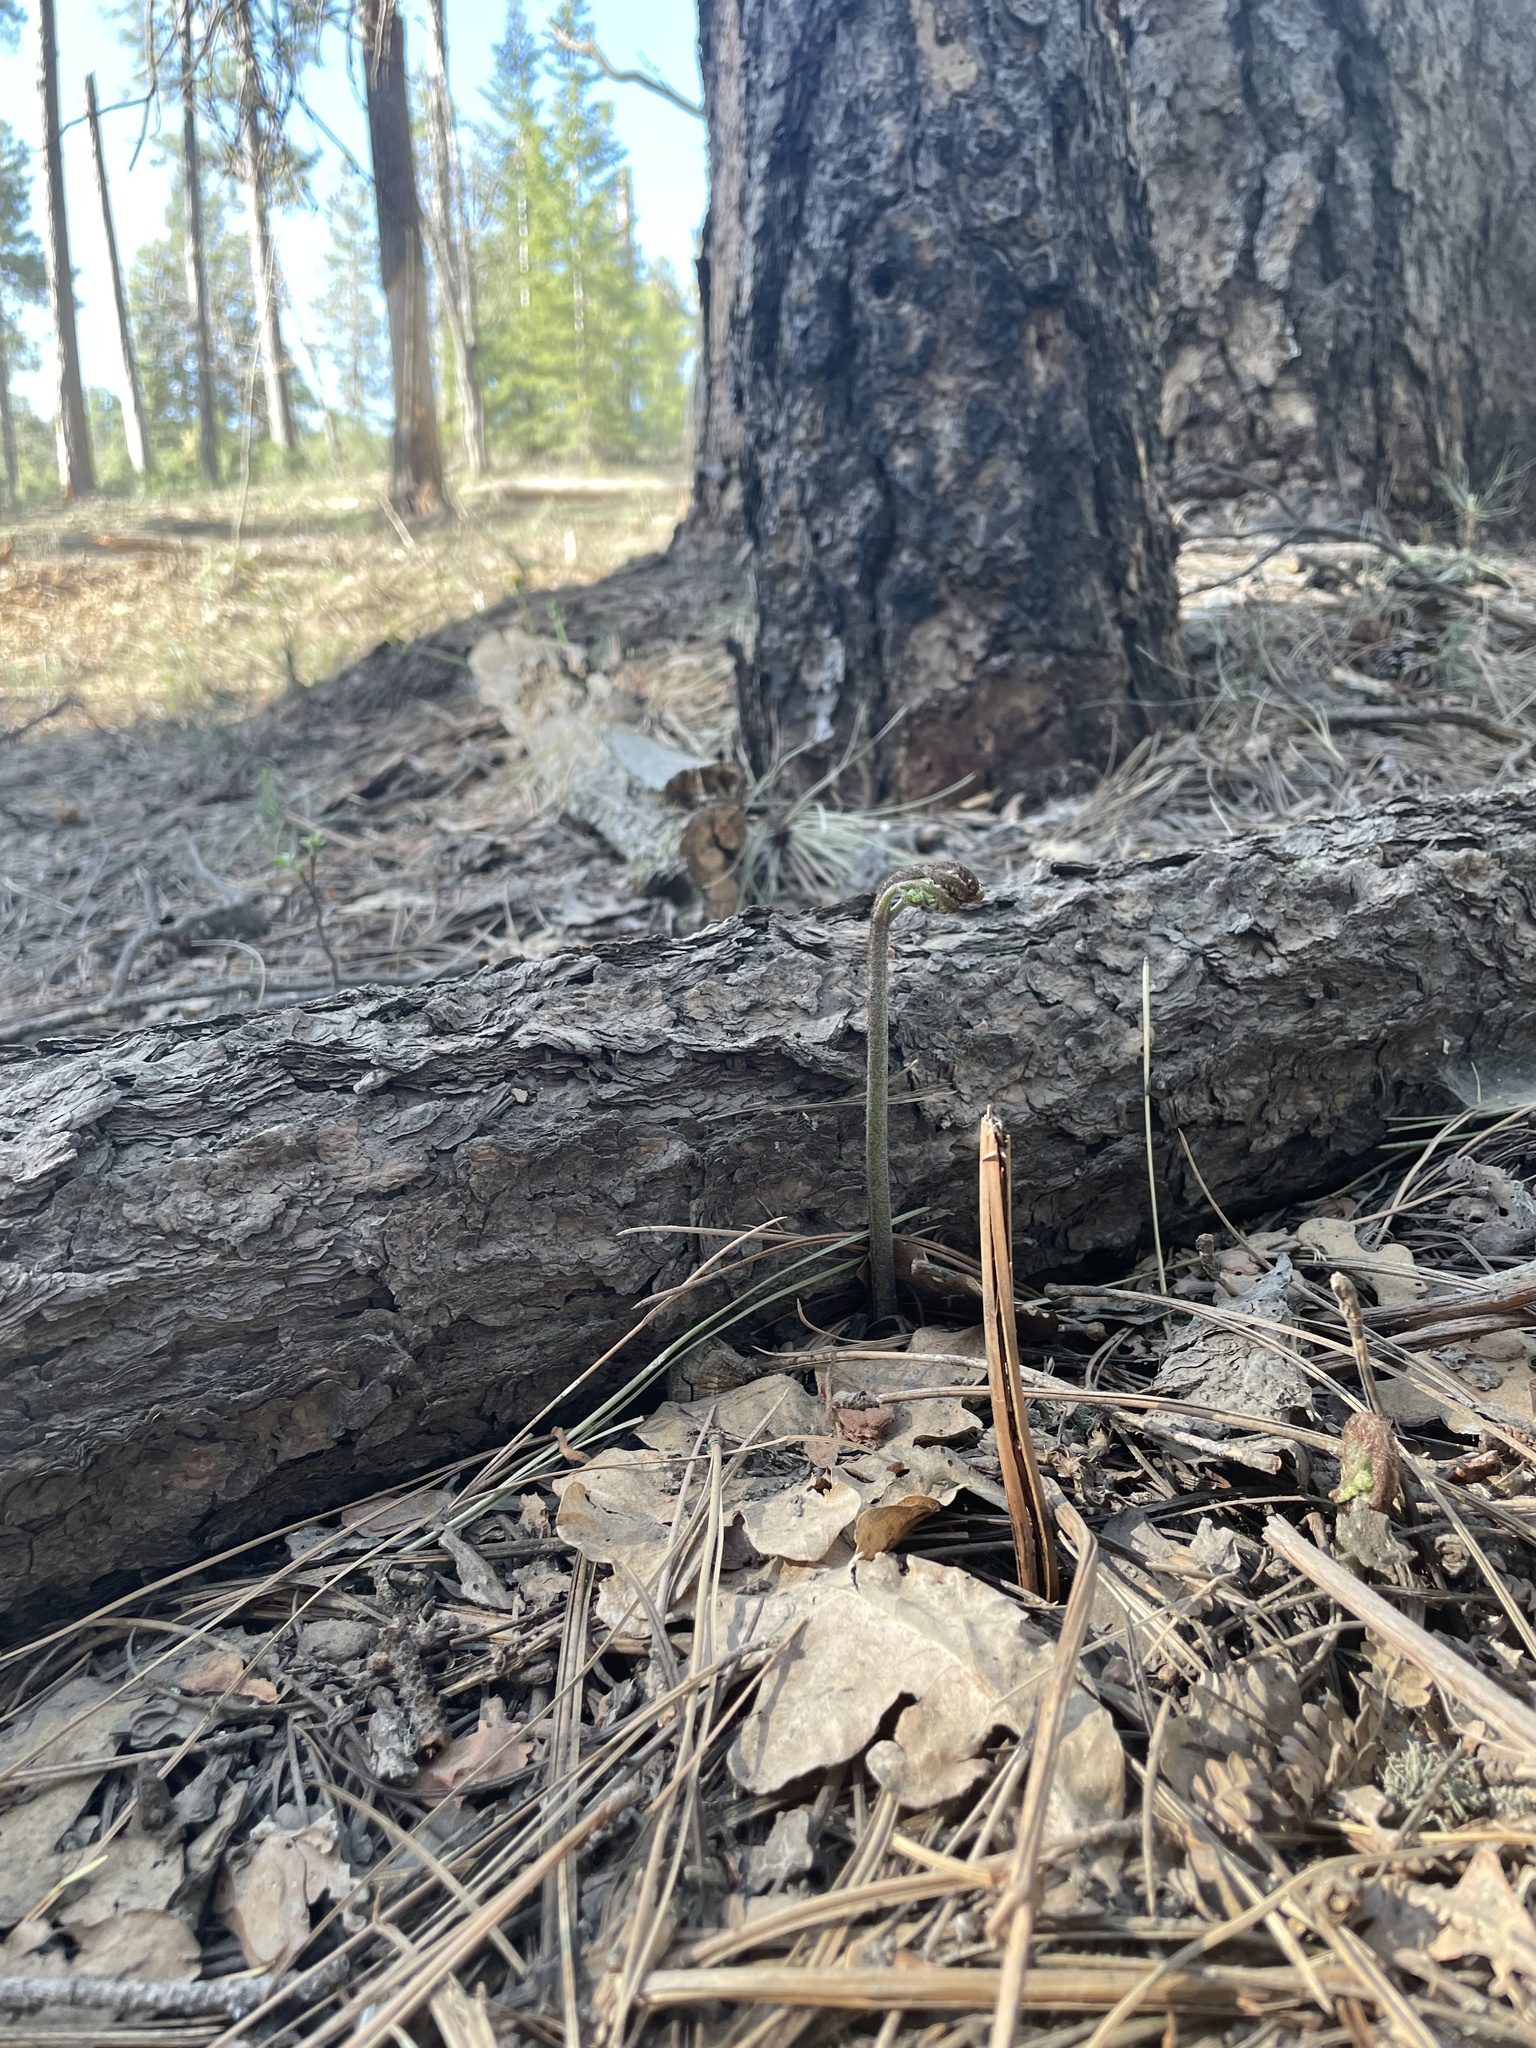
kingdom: Plantae
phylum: Tracheophyta
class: Polypodiopsida
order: Polypodiales
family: Dennstaedtiaceae
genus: Pteridium
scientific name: Pteridium aquilinum
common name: Bracken
